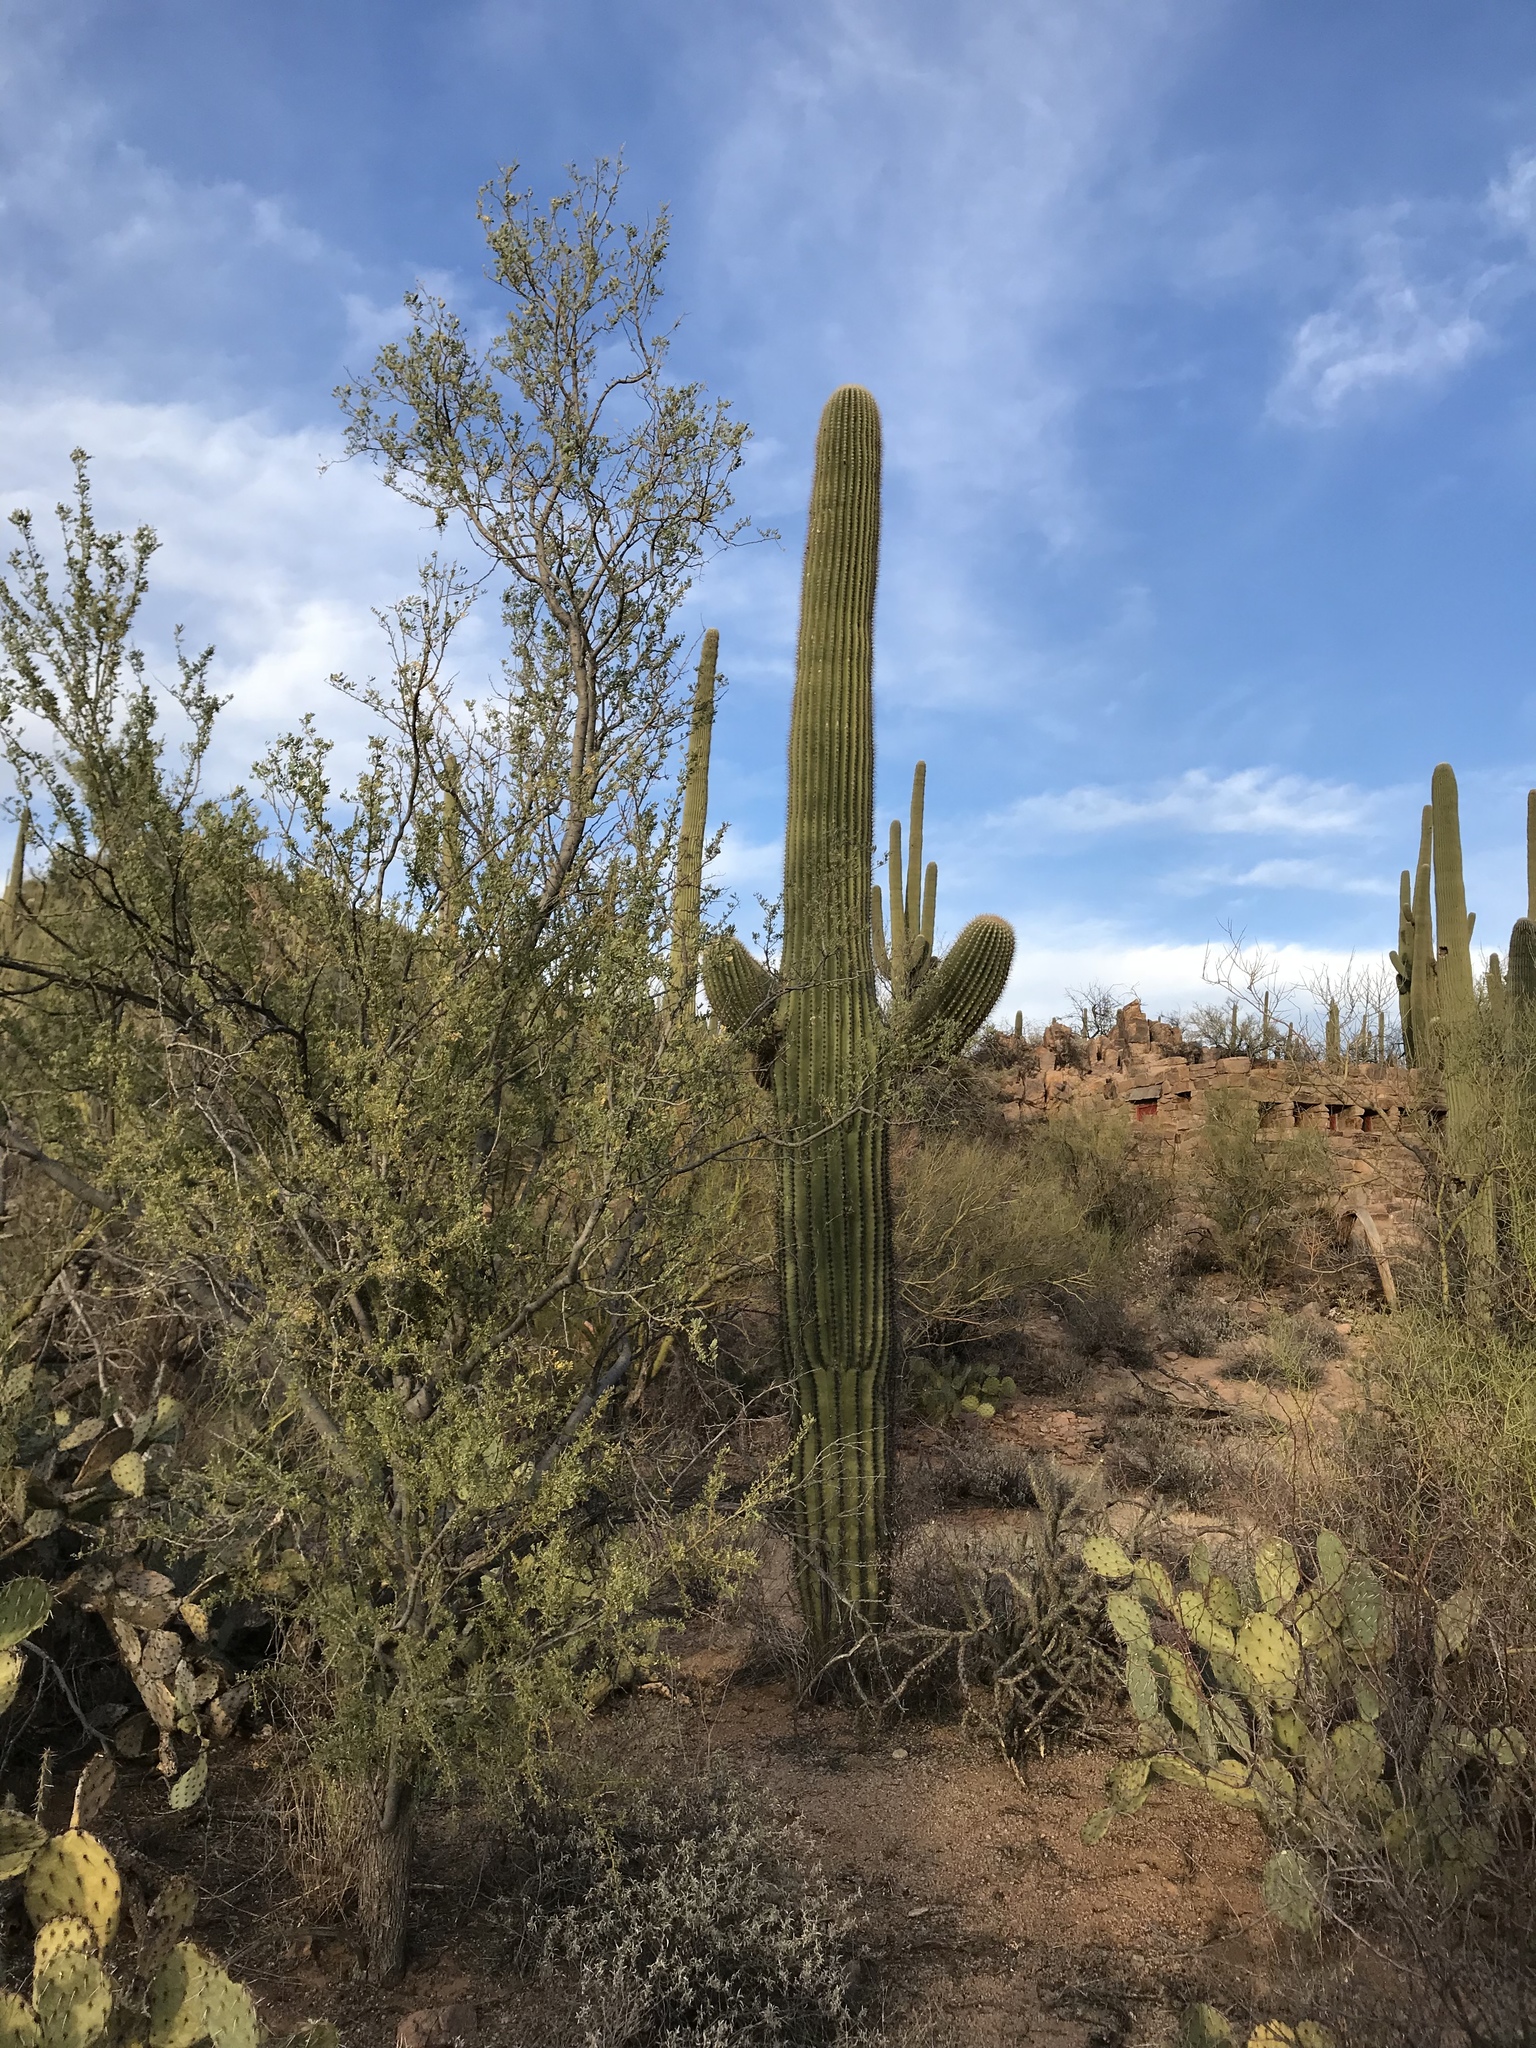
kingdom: Plantae
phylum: Tracheophyta
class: Magnoliopsida
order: Caryophyllales
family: Cactaceae
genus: Carnegiea
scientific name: Carnegiea gigantea
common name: Saguaro
